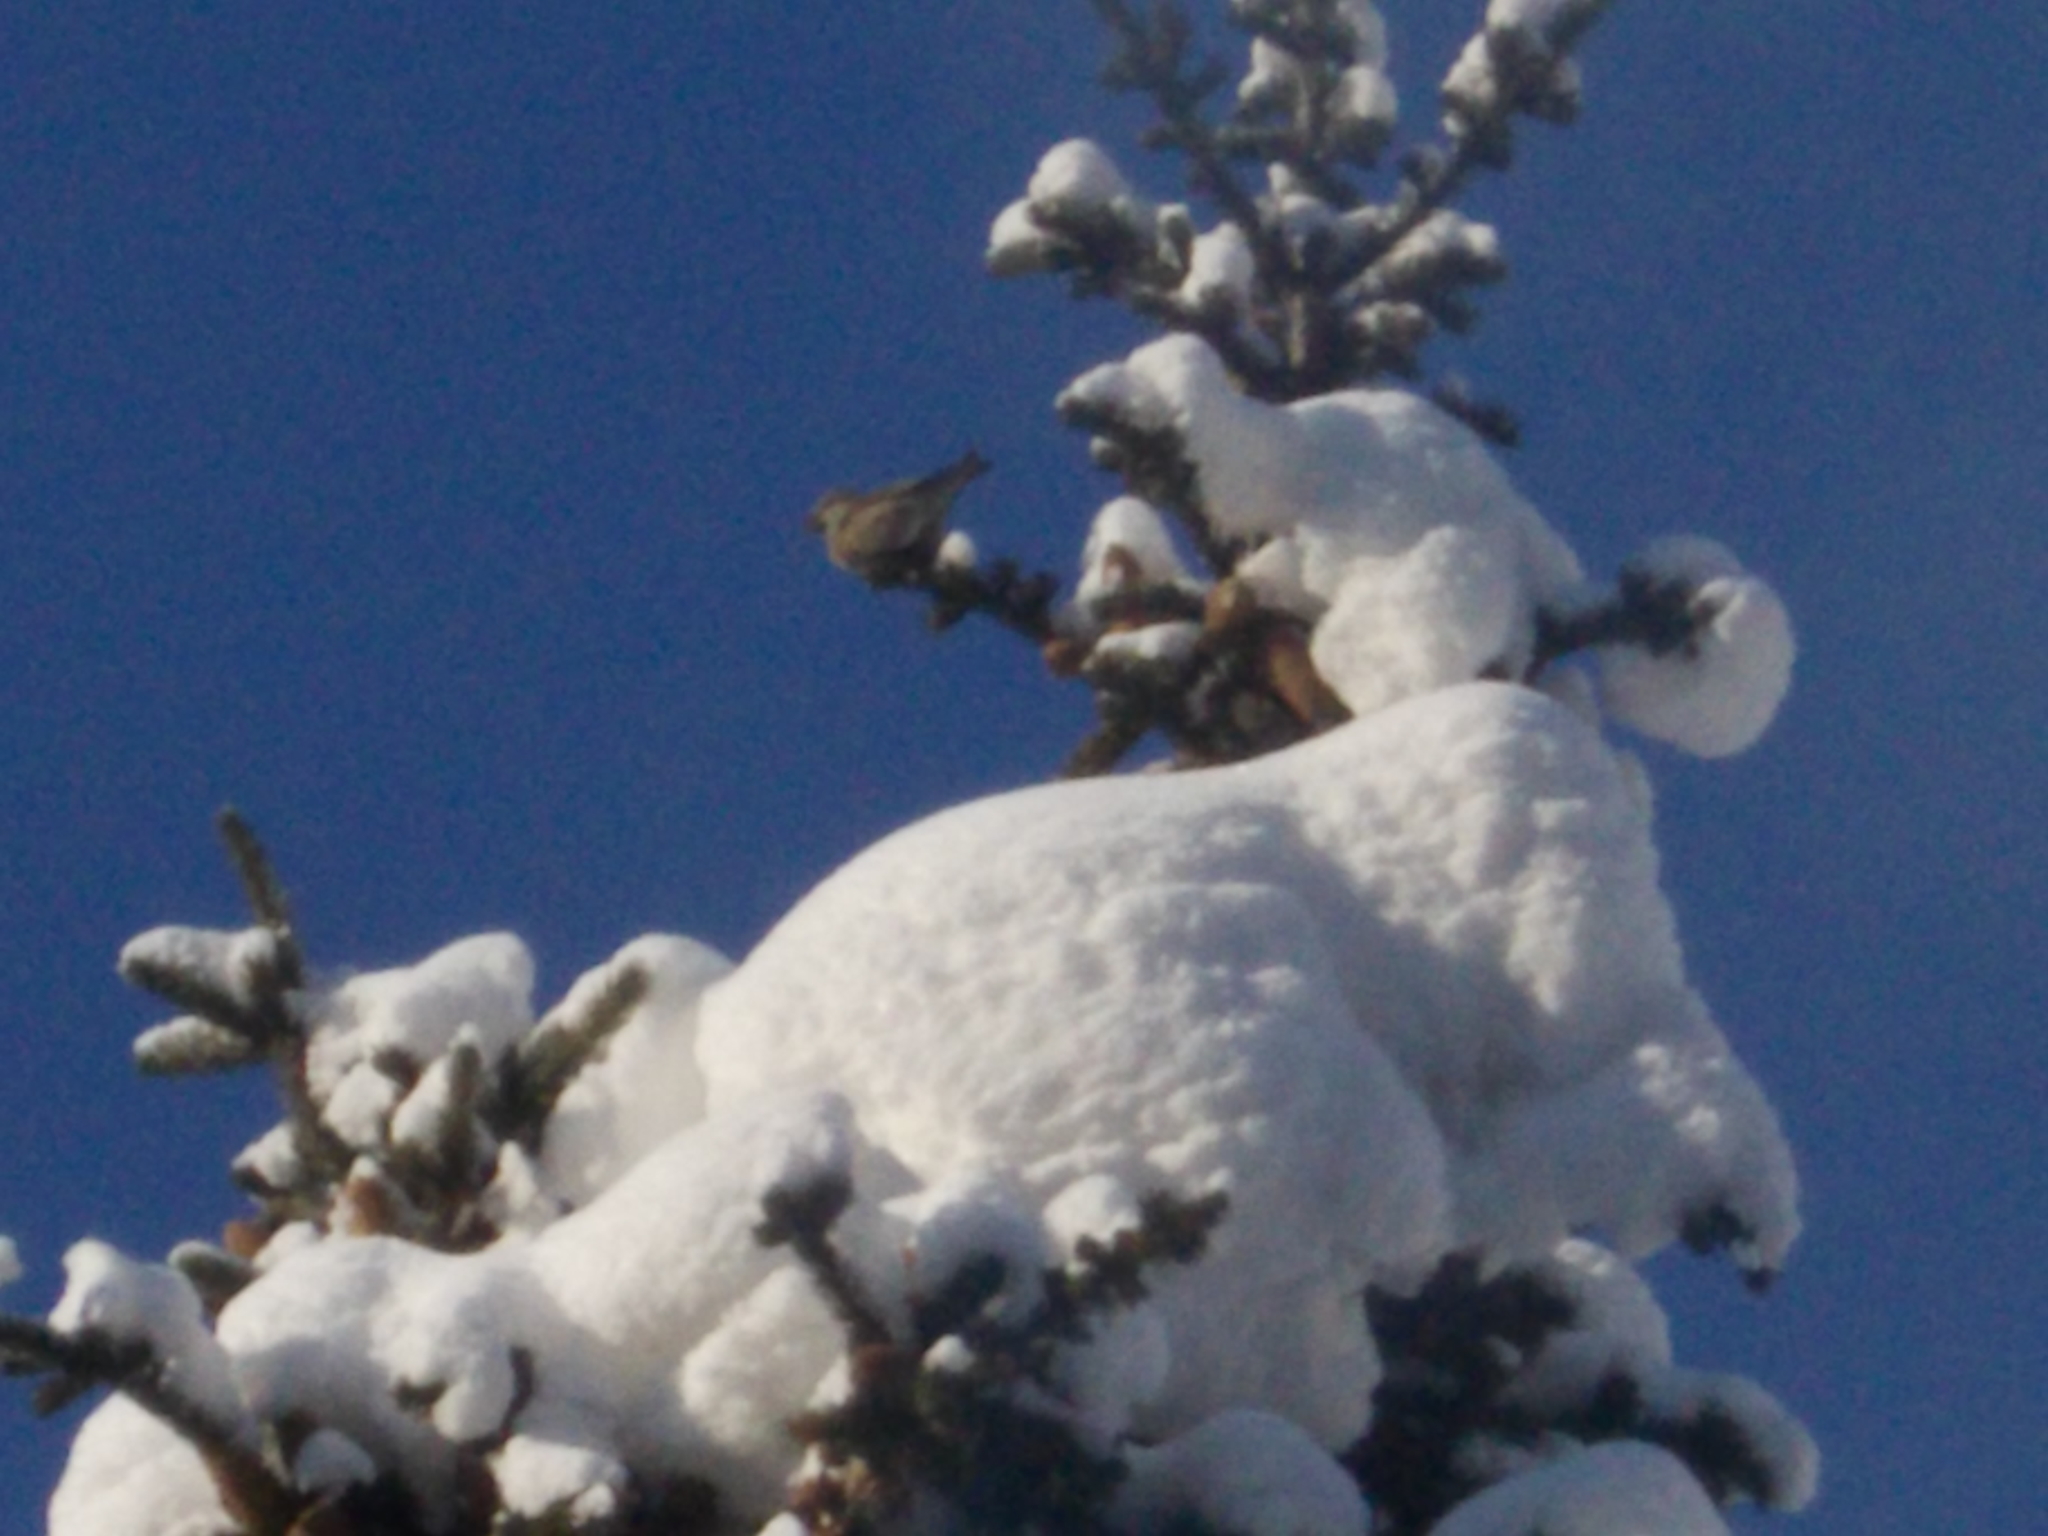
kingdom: Animalia
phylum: Chordata
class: Aves
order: Passeriformes
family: Fringillidae
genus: Loxia
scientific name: Loxia curvirostra
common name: Red crossbill
